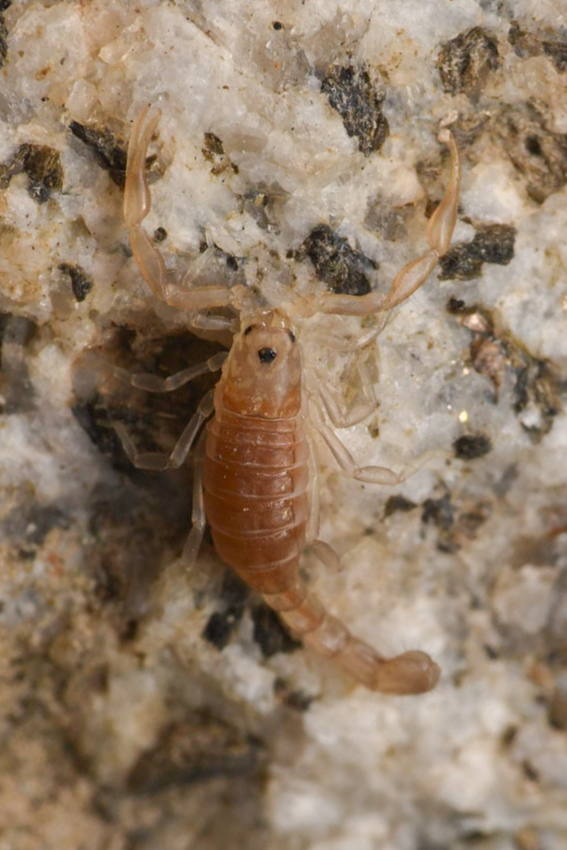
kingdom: Animalia
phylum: Arthropoda
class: Arachnida
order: Scorpiones
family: Vaejovidae
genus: Serradigitus
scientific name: Serradigitus joshuaensis
